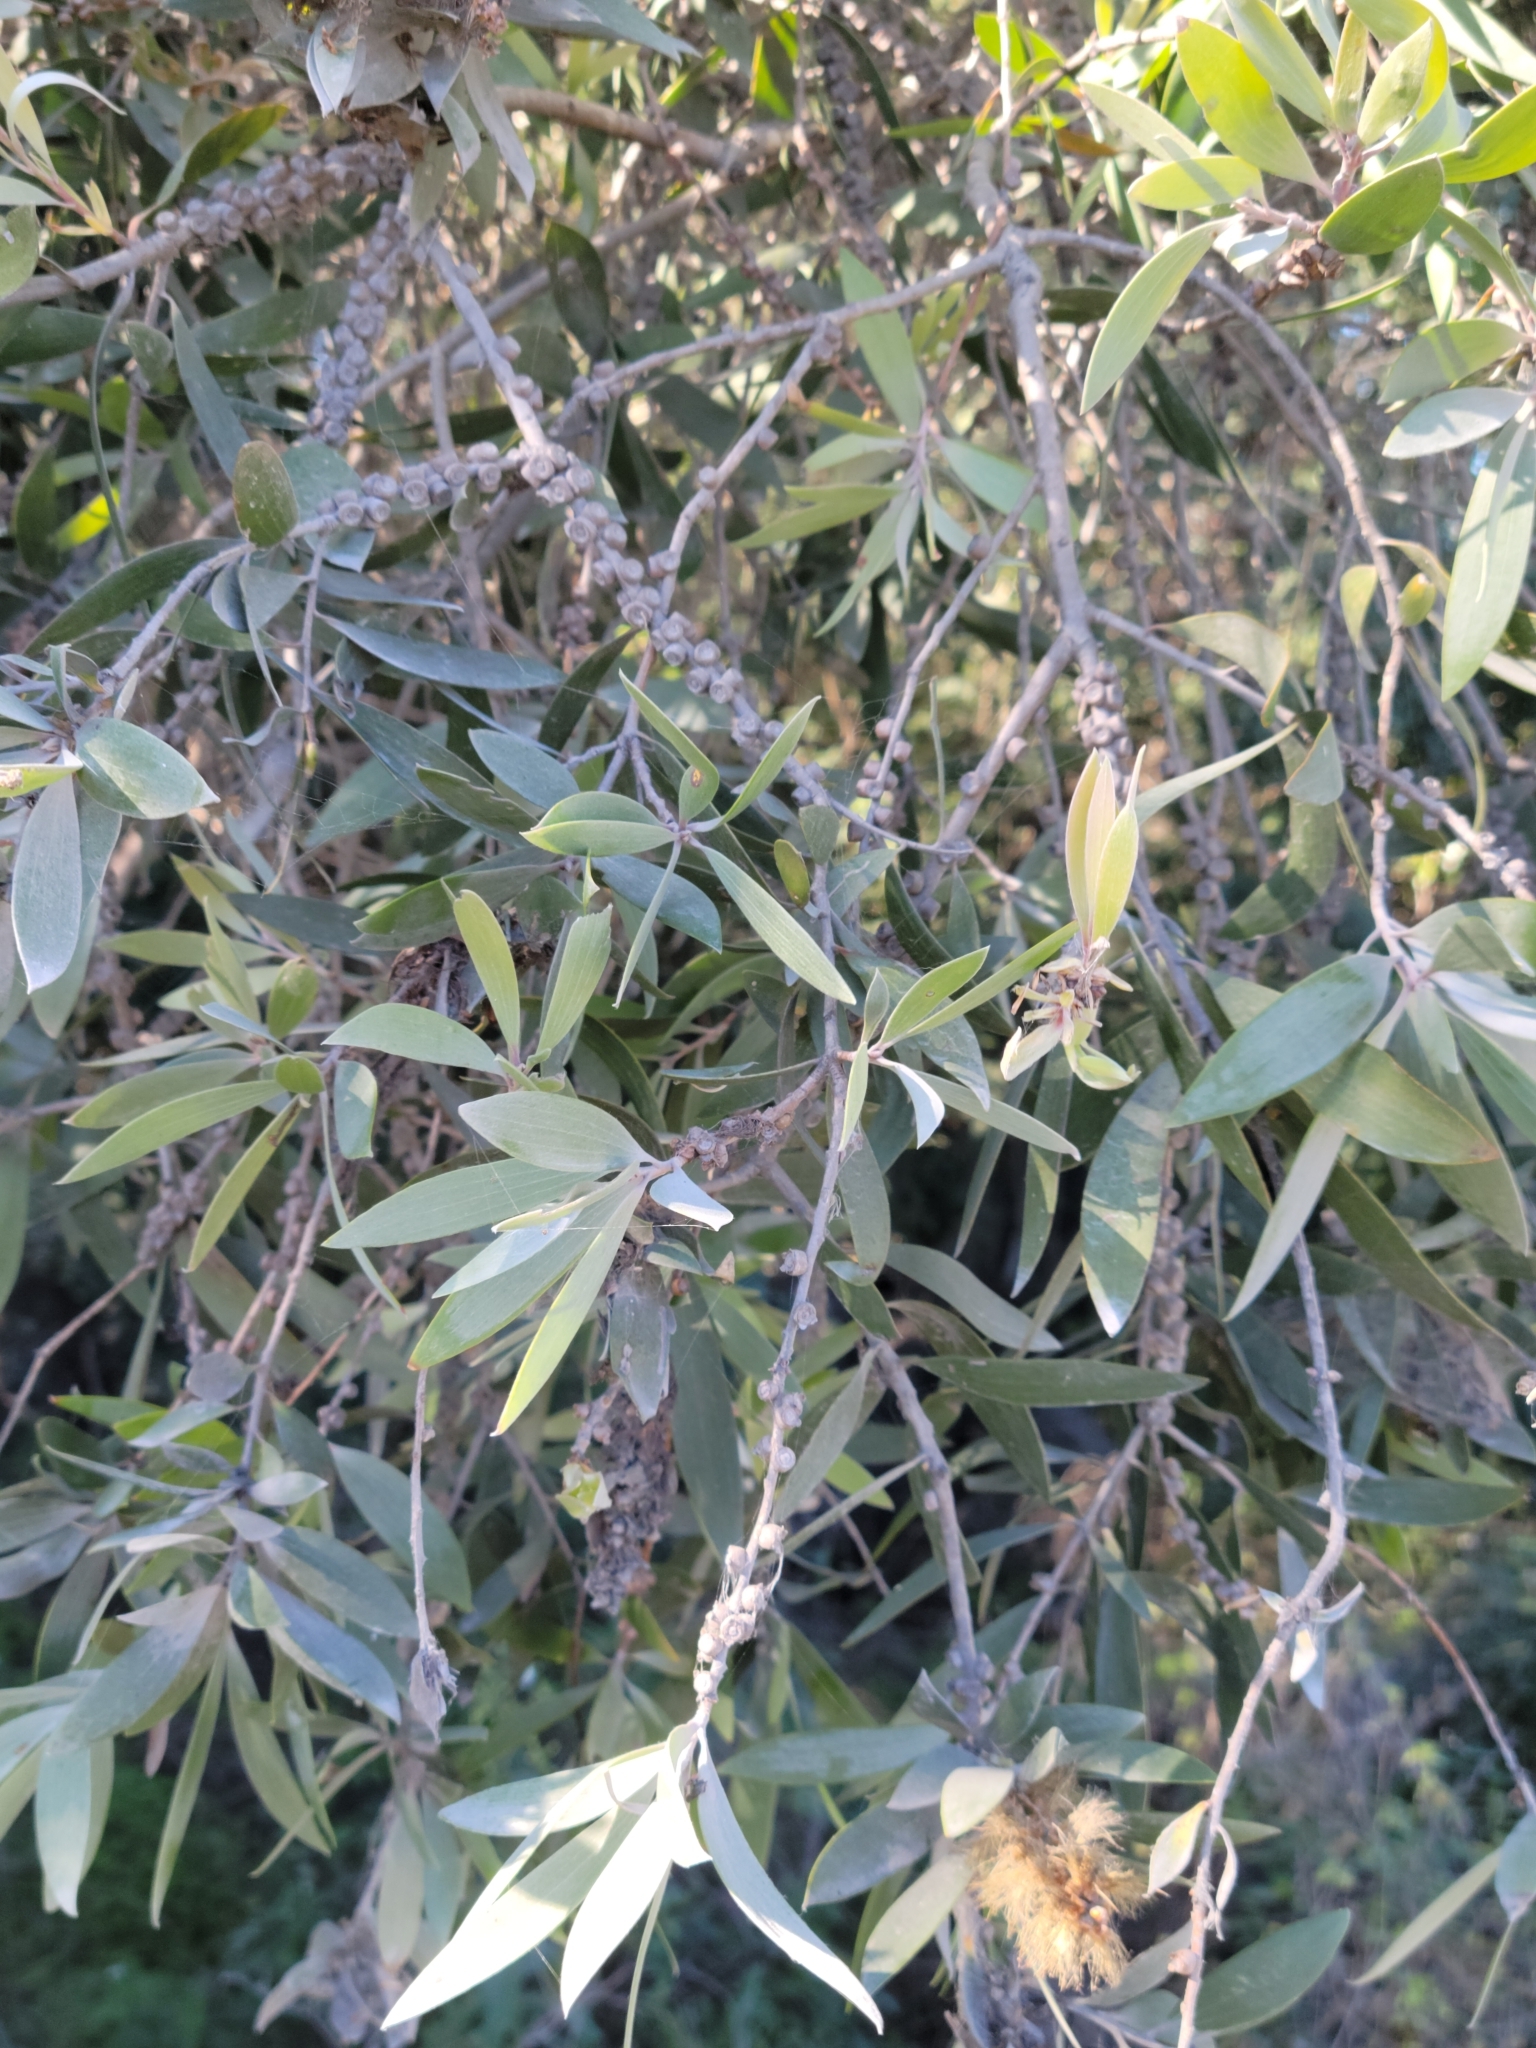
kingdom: Plantae
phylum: Tracheophyta
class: Magnoliopsida
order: Myrtales
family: Myrtaceae
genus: Melaleuca
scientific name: Melaleuca quinquenervia
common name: Punktree
